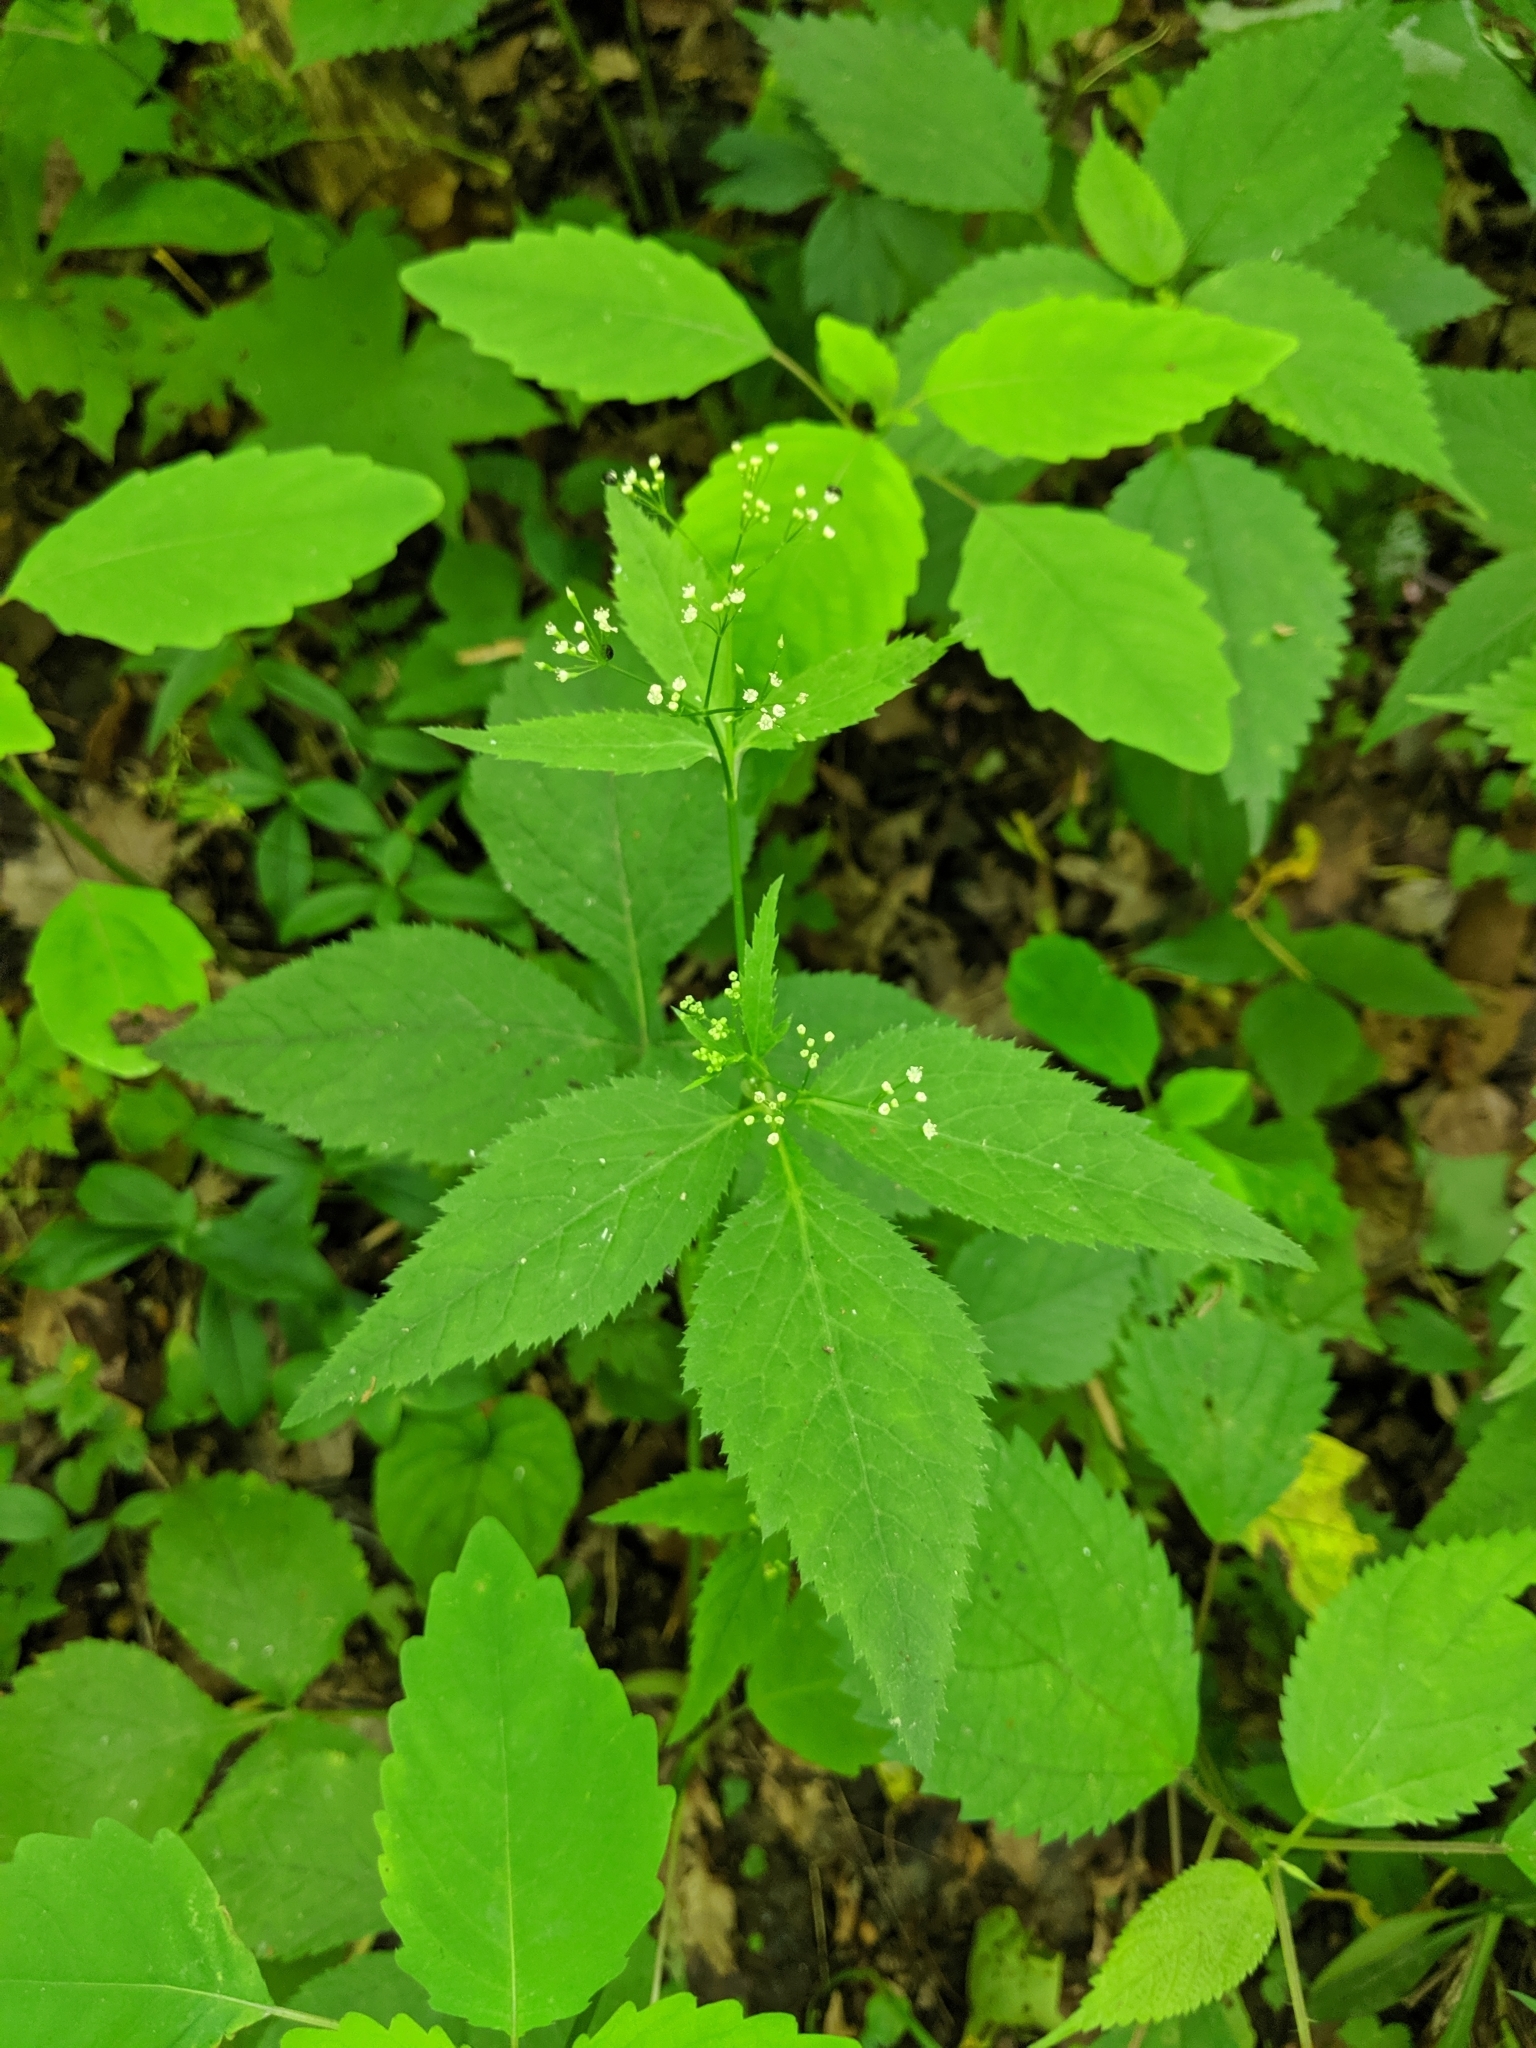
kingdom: Plantae
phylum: Tracheophyta
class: Magnoliopsida
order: Apiales
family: Apiaceae
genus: Cryptotaenia
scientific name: Cryptotaenia canadensis
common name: Honewort
